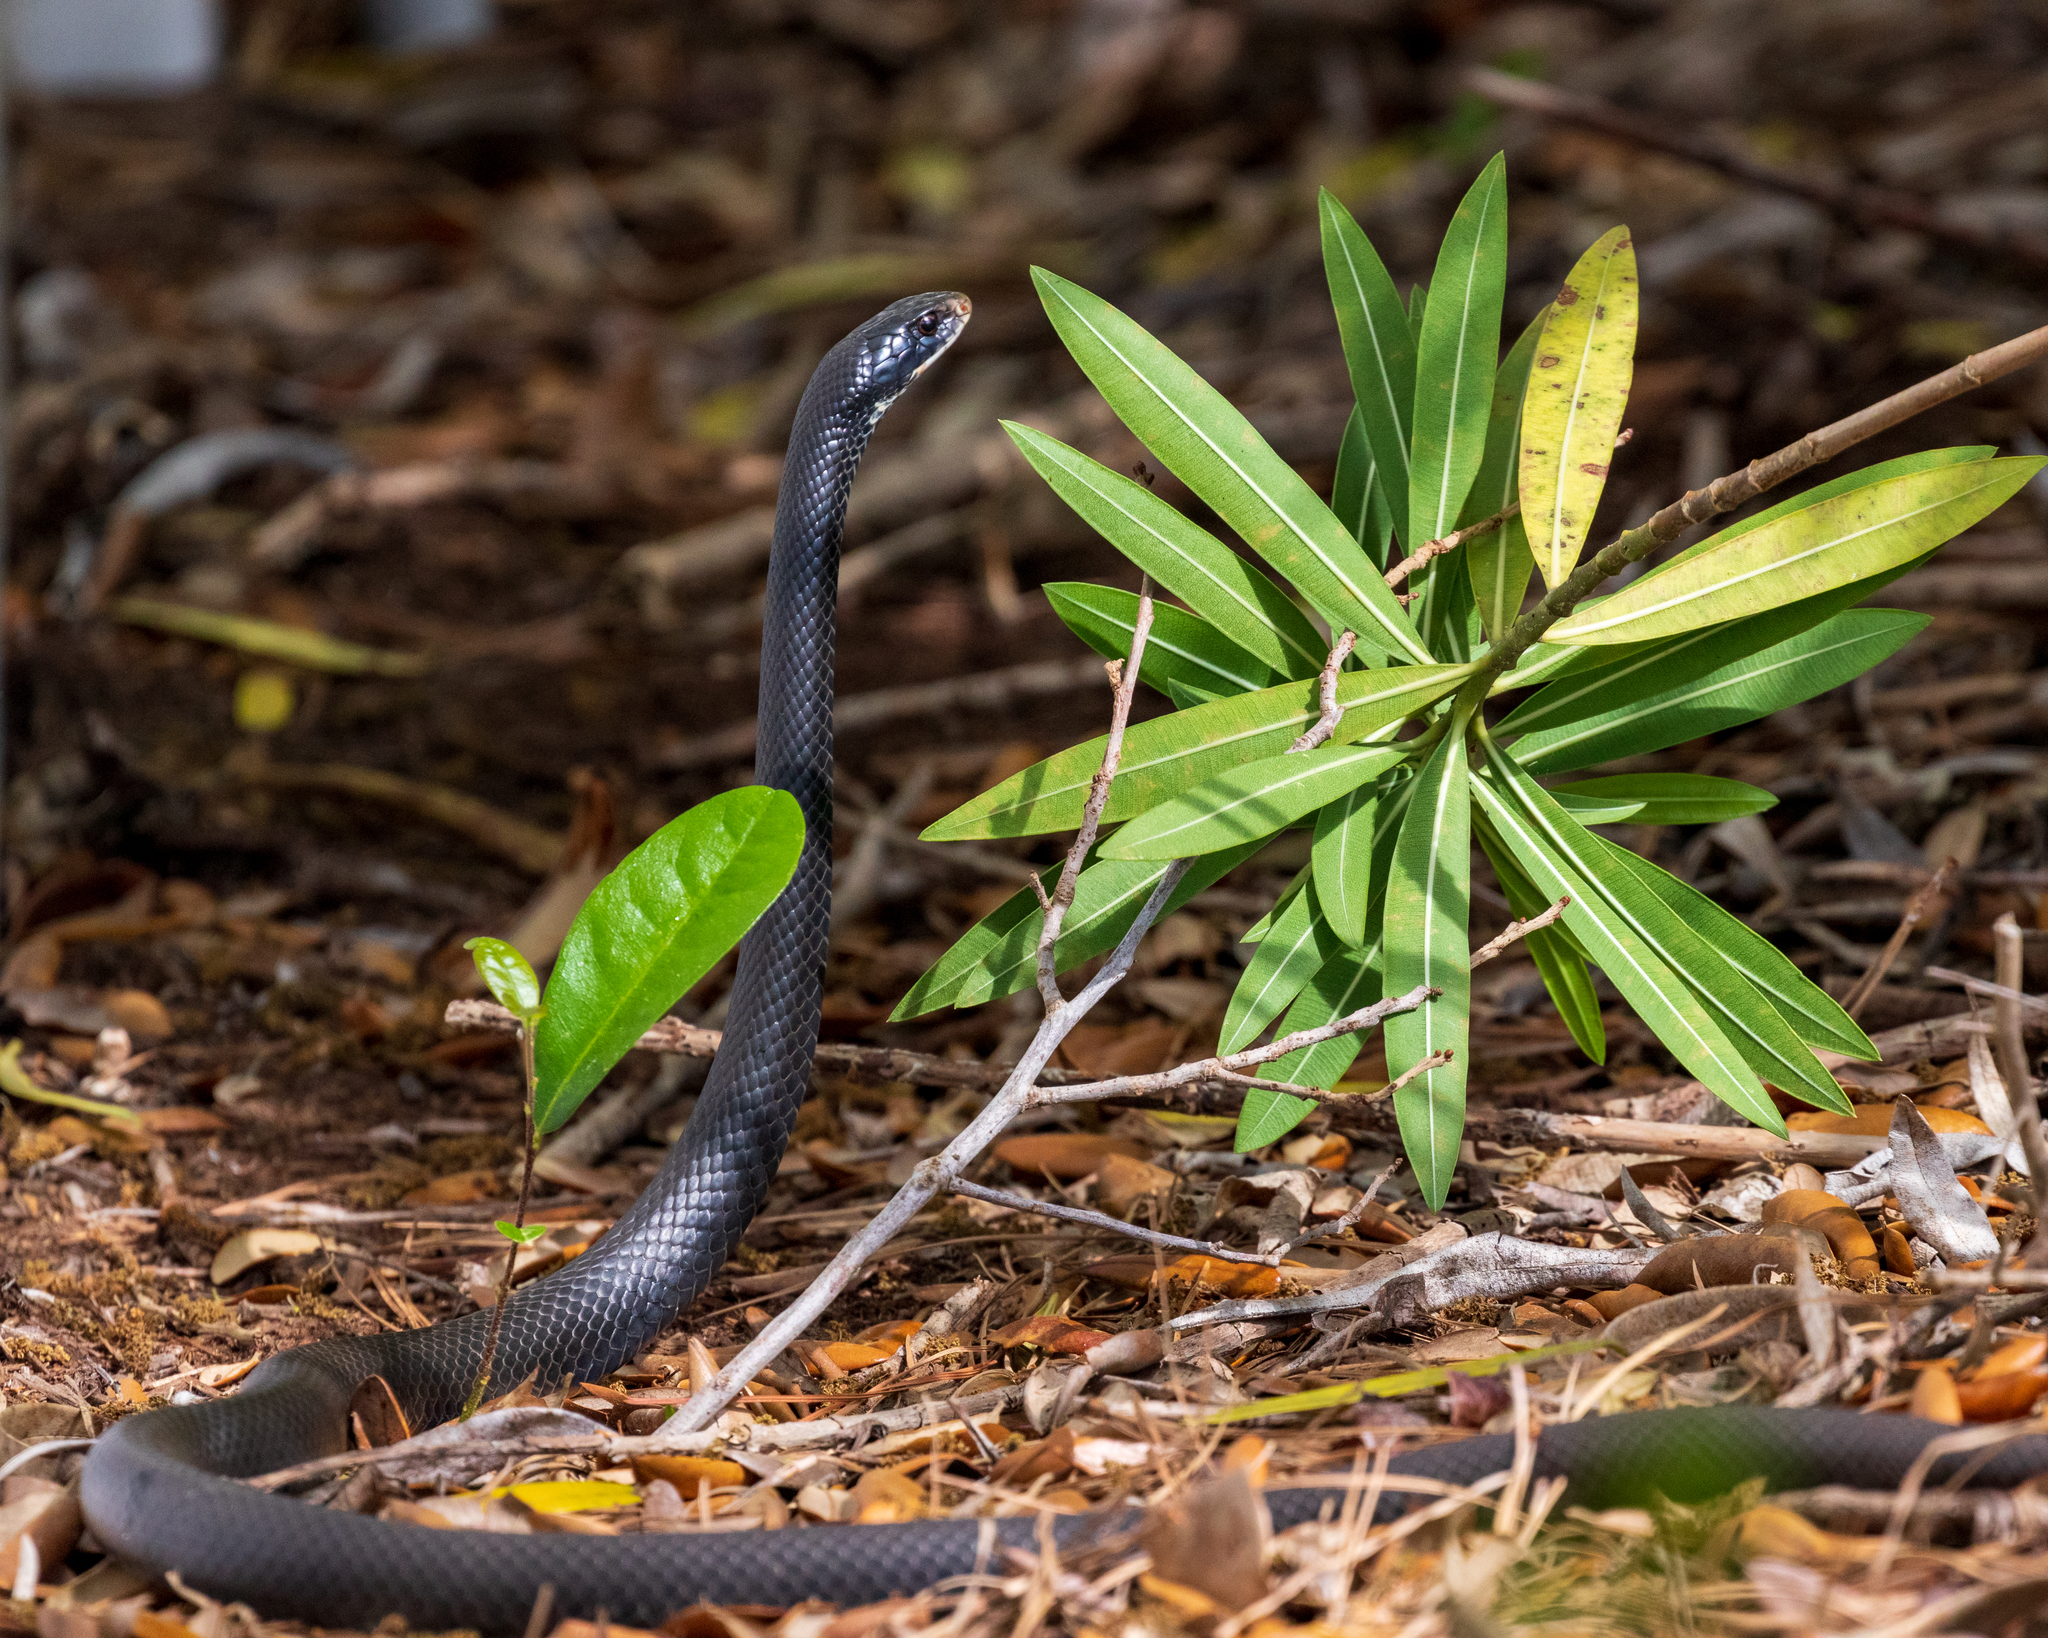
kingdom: Animalia
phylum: Chordata
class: Squamata
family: Colubridae
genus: Coluber
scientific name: Coluber constrictor
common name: Eastern racer
